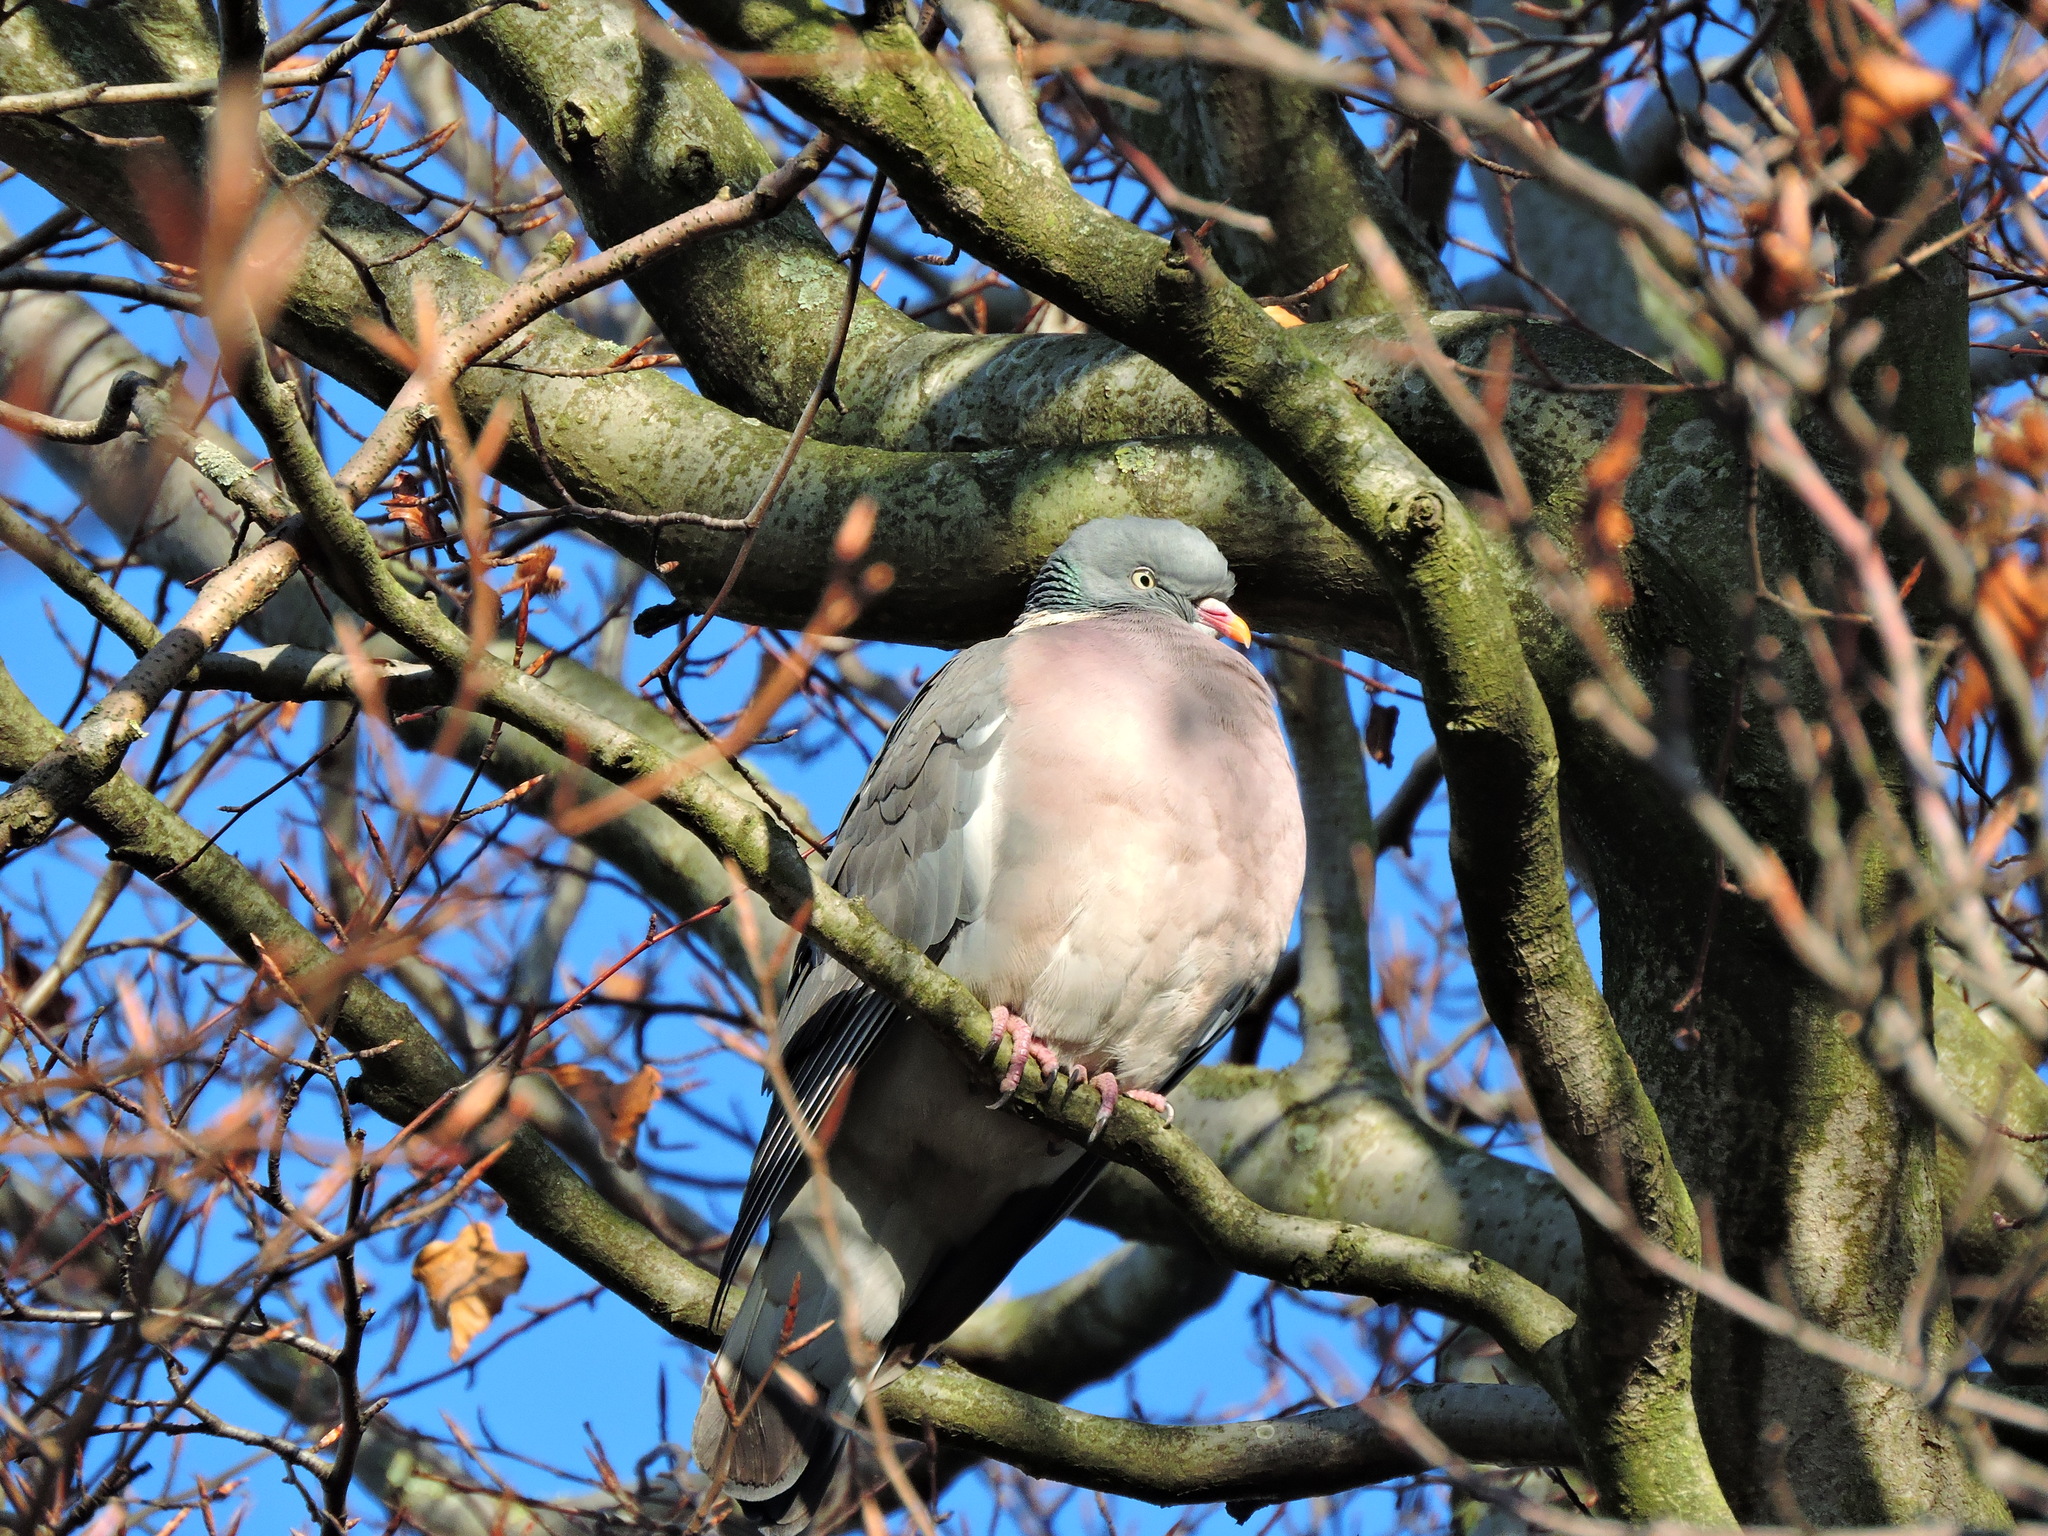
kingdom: Animalia
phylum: Chordata
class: Aves
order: Columbiformes
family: Columbidae
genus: Columba
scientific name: Columba palumbus
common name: Common wood pigeon
